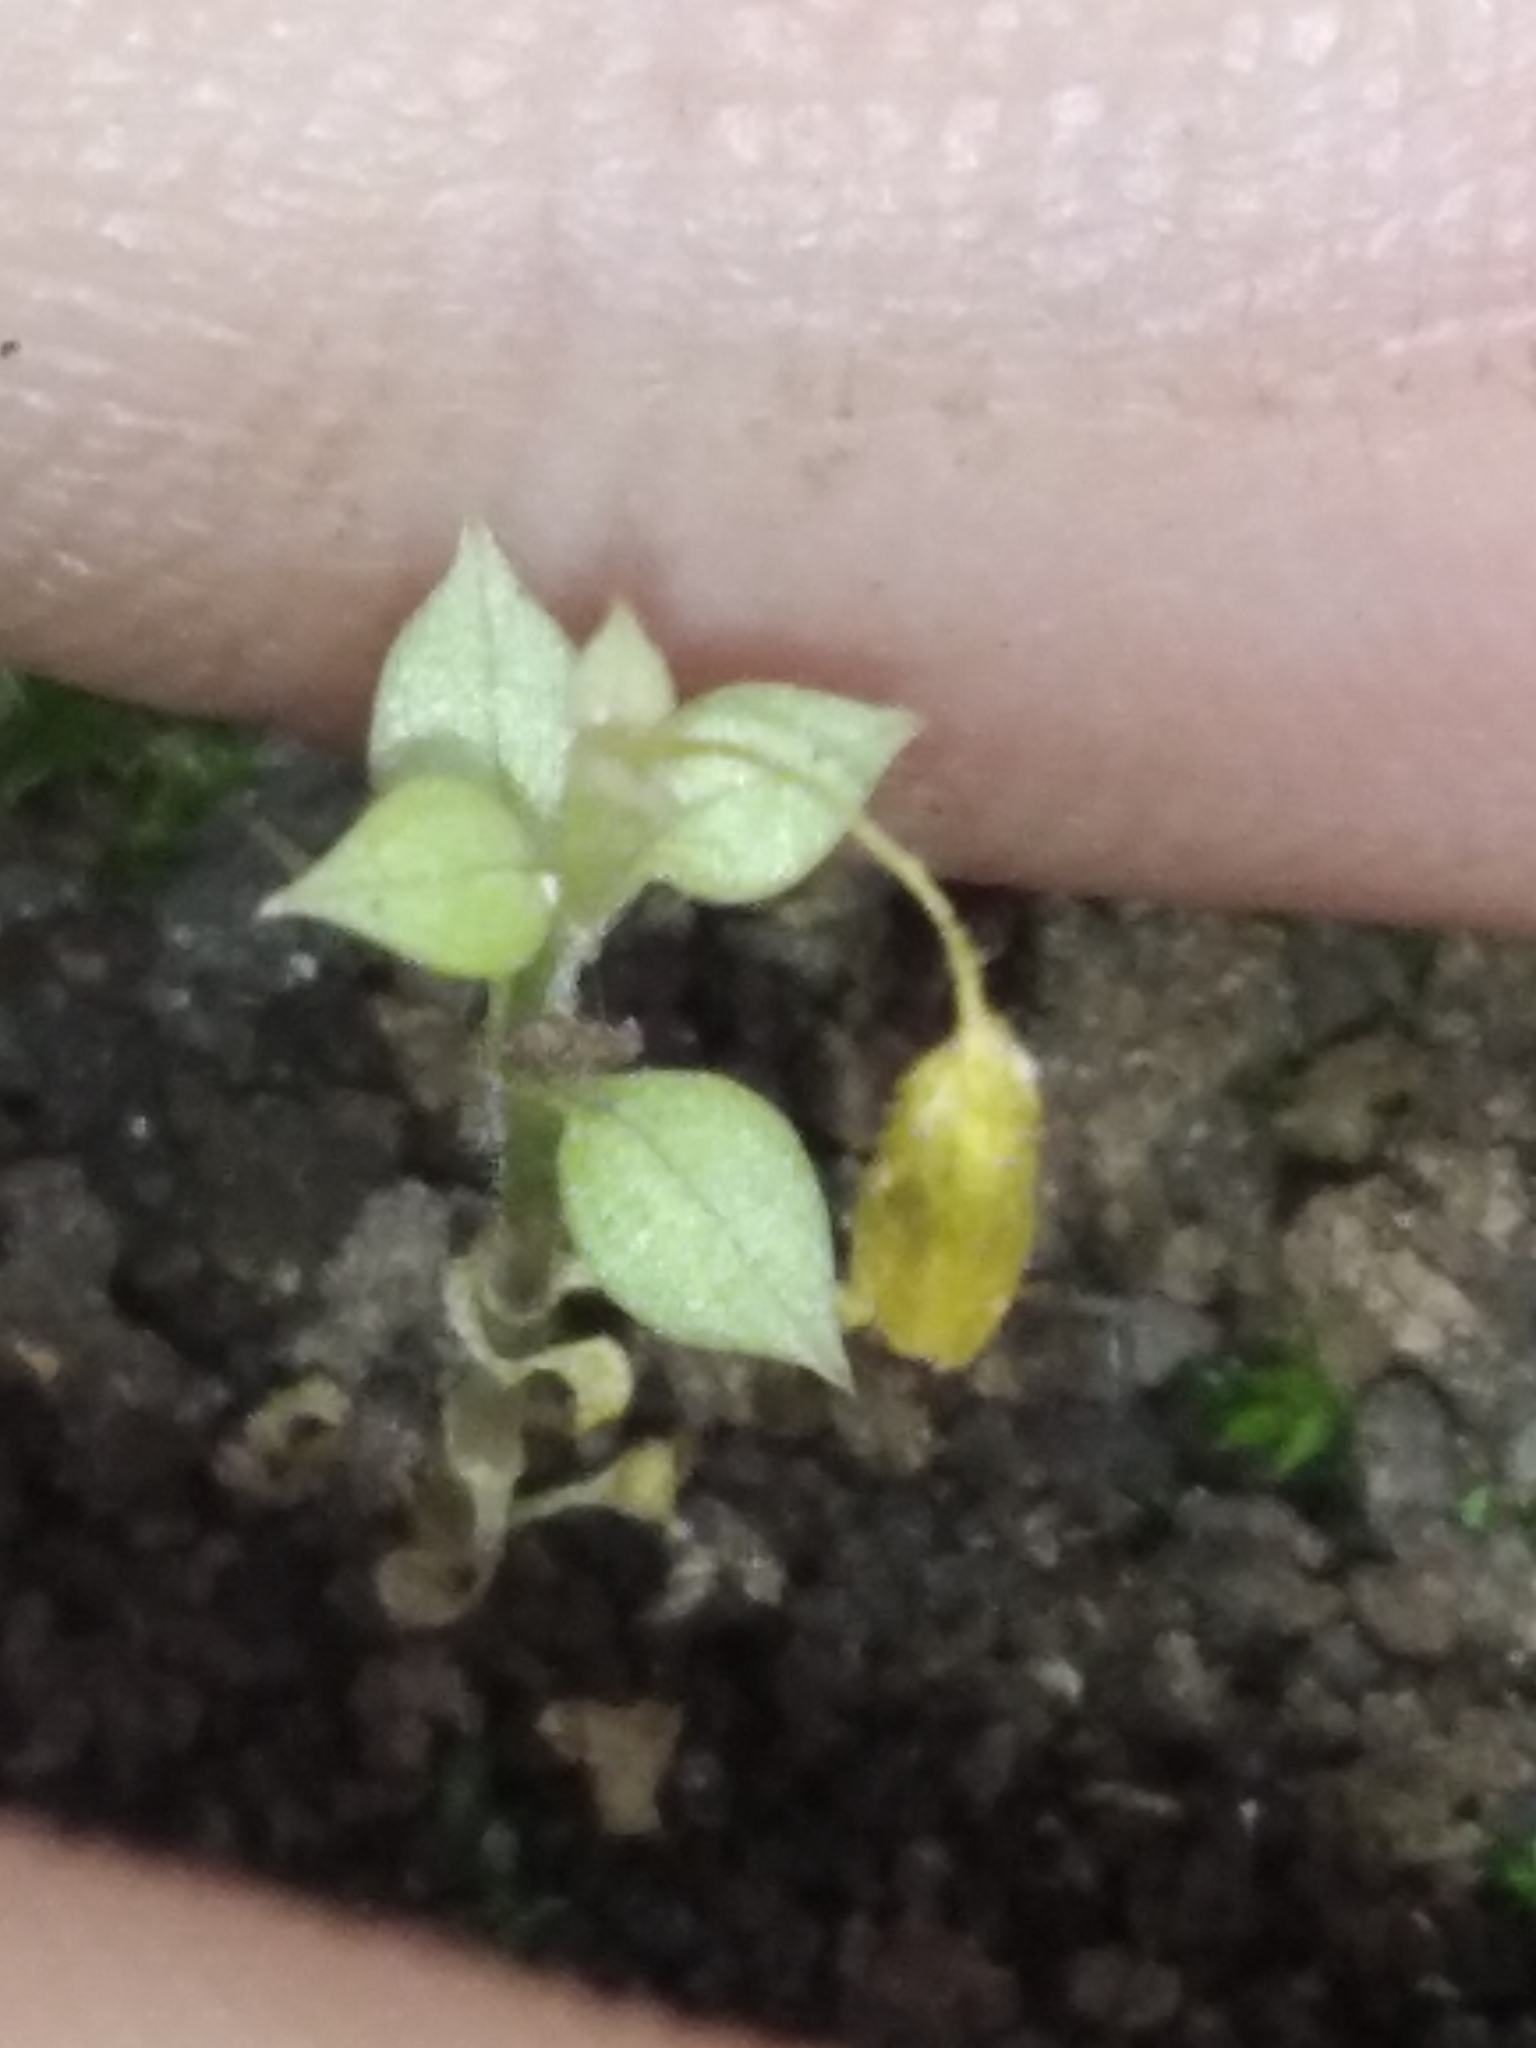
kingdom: Plantae
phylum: Tracheophyta
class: Magnoliopsida
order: Caryophyllales
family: Caryophyllaceae
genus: Stellaria
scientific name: Stellaria media
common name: Common chickweed
